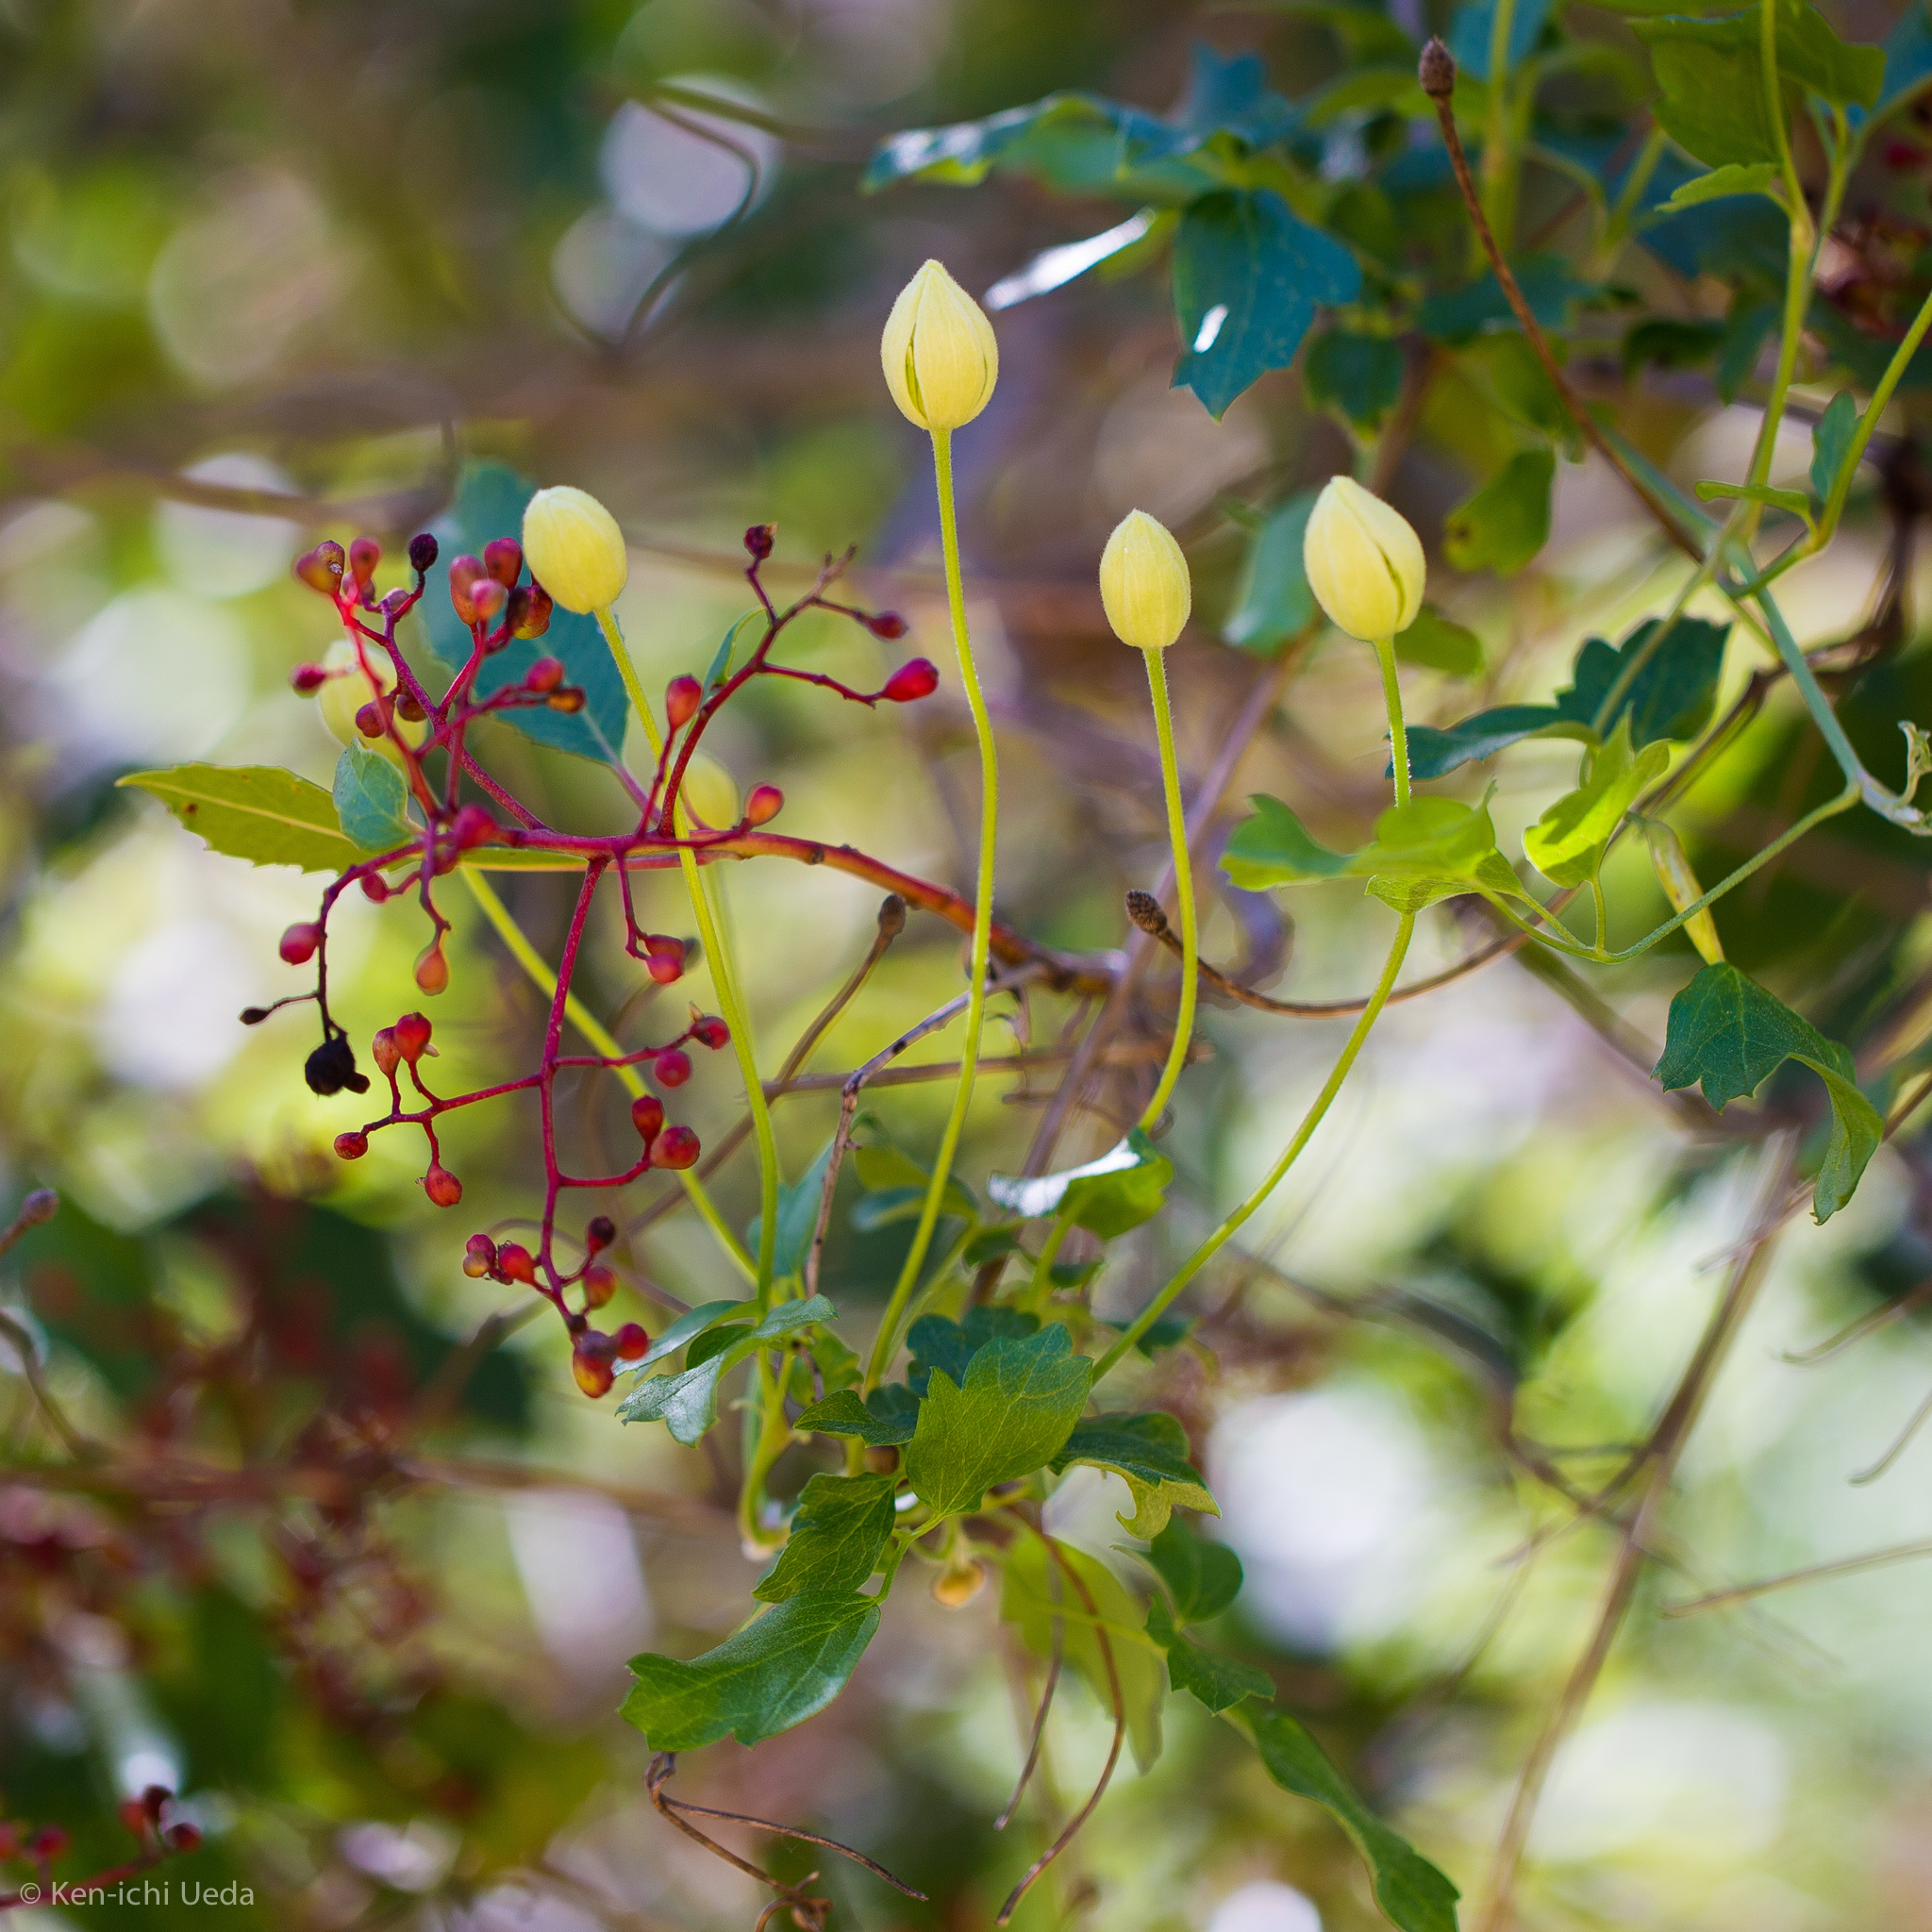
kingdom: Plantae
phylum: Tracheophyta
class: Magnoliopsida
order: Ranunculales
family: Ranunculaceae
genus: Clematis
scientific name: Clematis lasiantha
